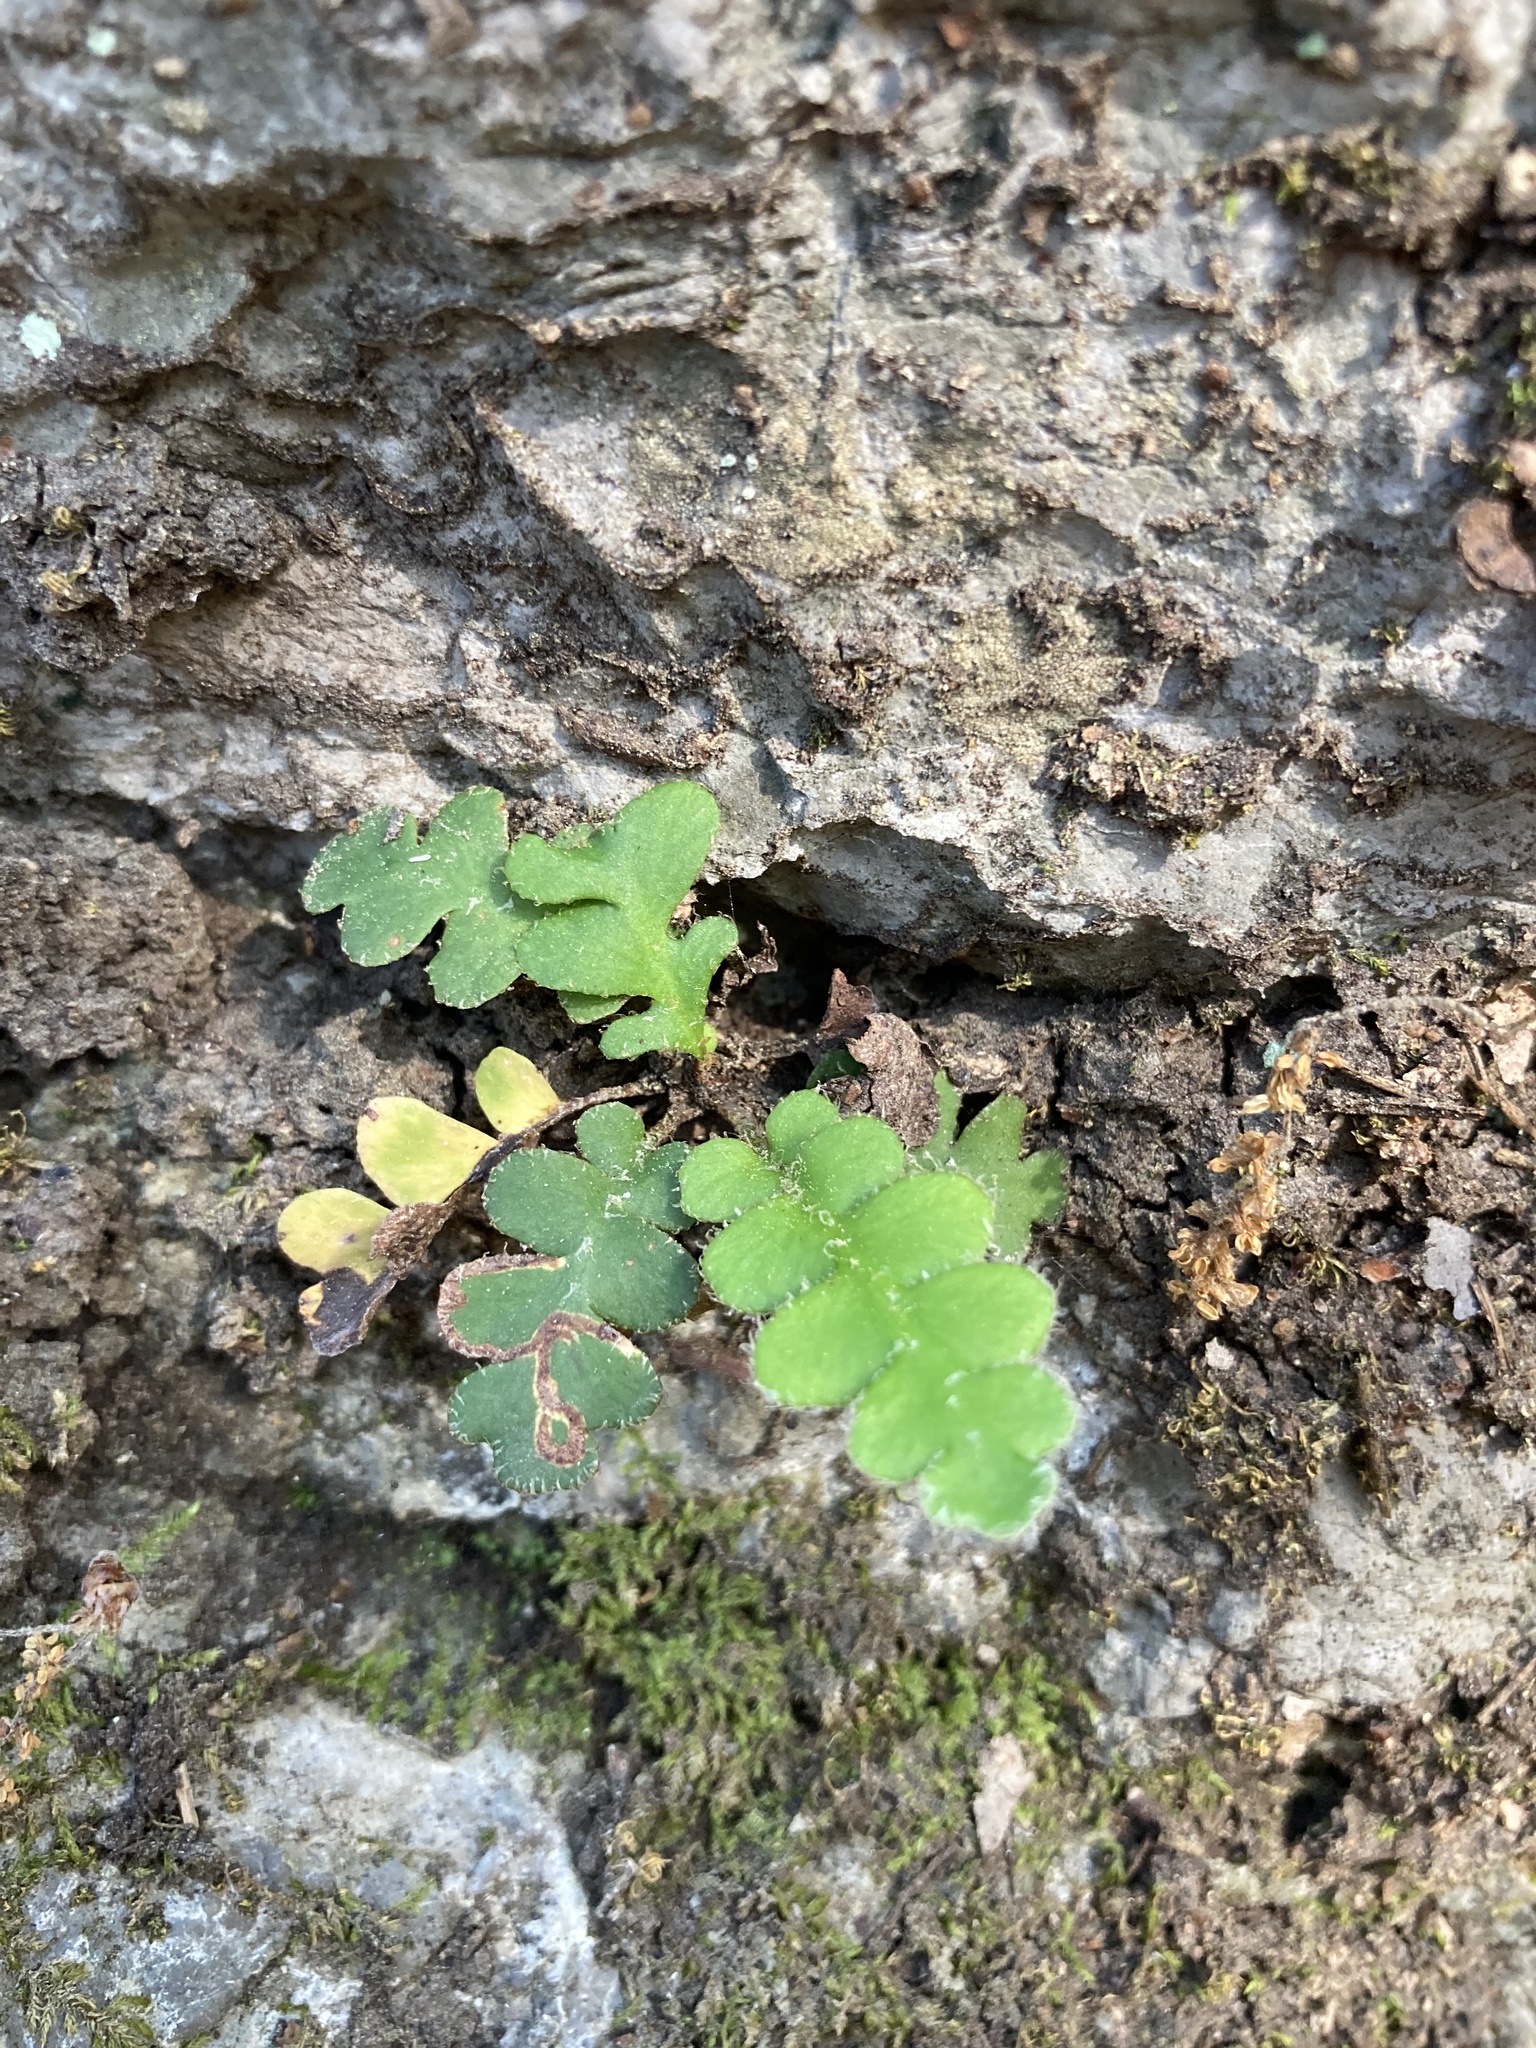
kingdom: Plantae
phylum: Tracheophyta
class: Polypodiopsida
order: Polypodiales
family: Aspleniaceae
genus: Asplenium
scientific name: Asplenium ceterach
